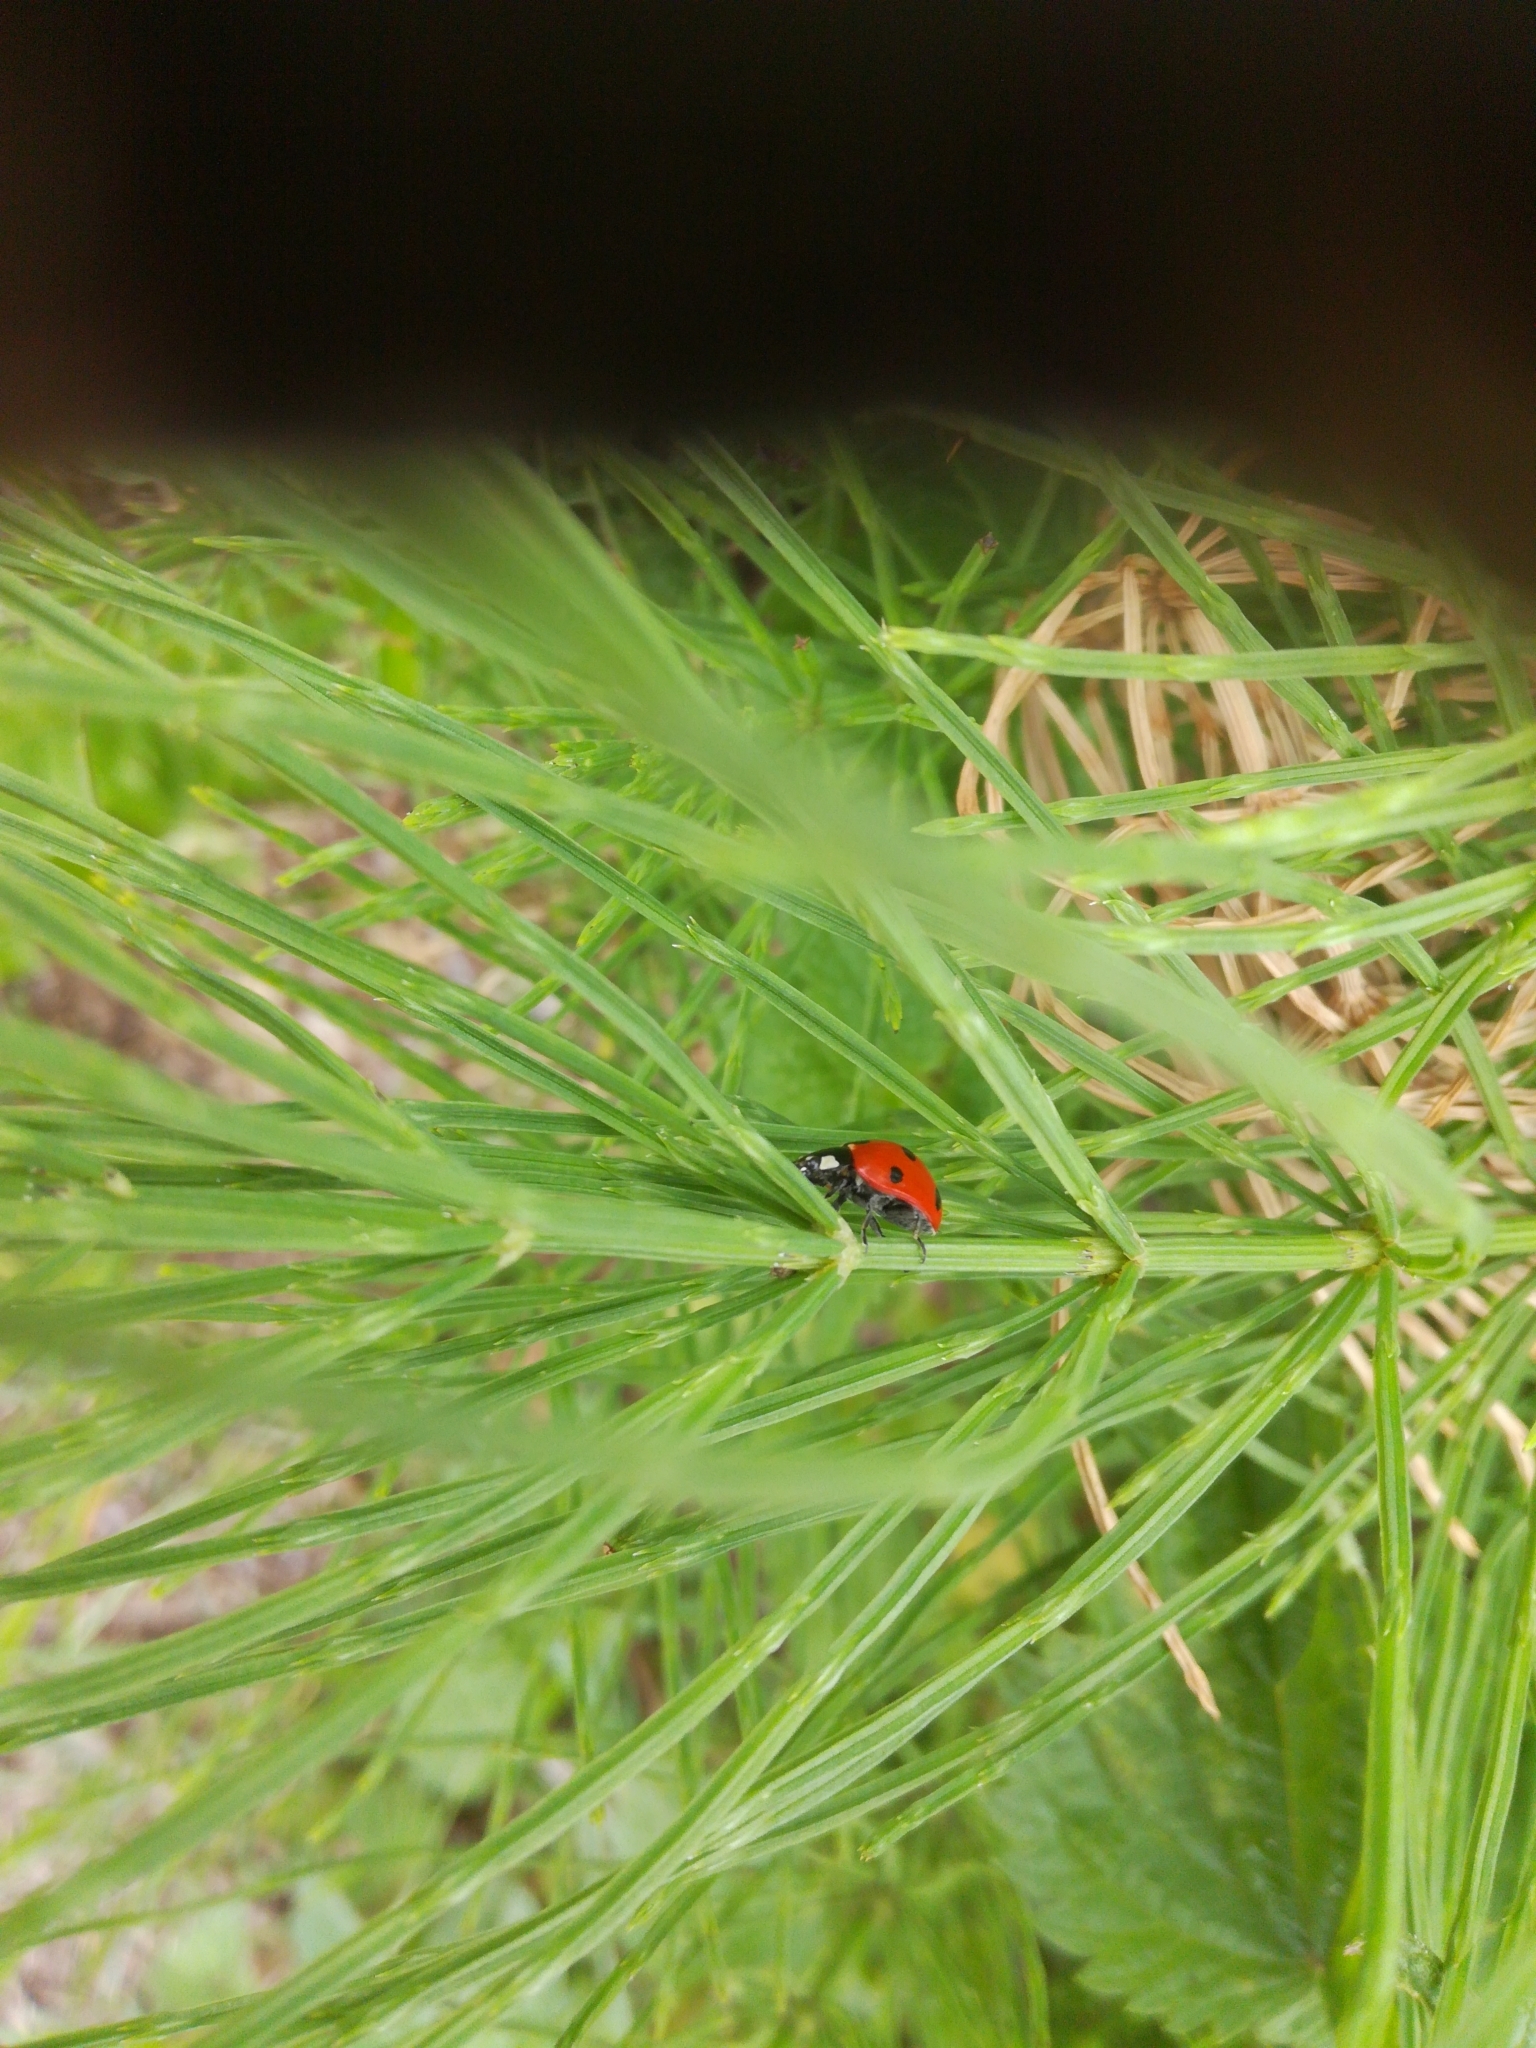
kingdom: Animalia
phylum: Arthropoda
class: Insecta
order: Coleoptera
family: Coccinellidae
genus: Coccinella
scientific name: Coccinella septempunctata
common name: Sevenspotted lady beetle
